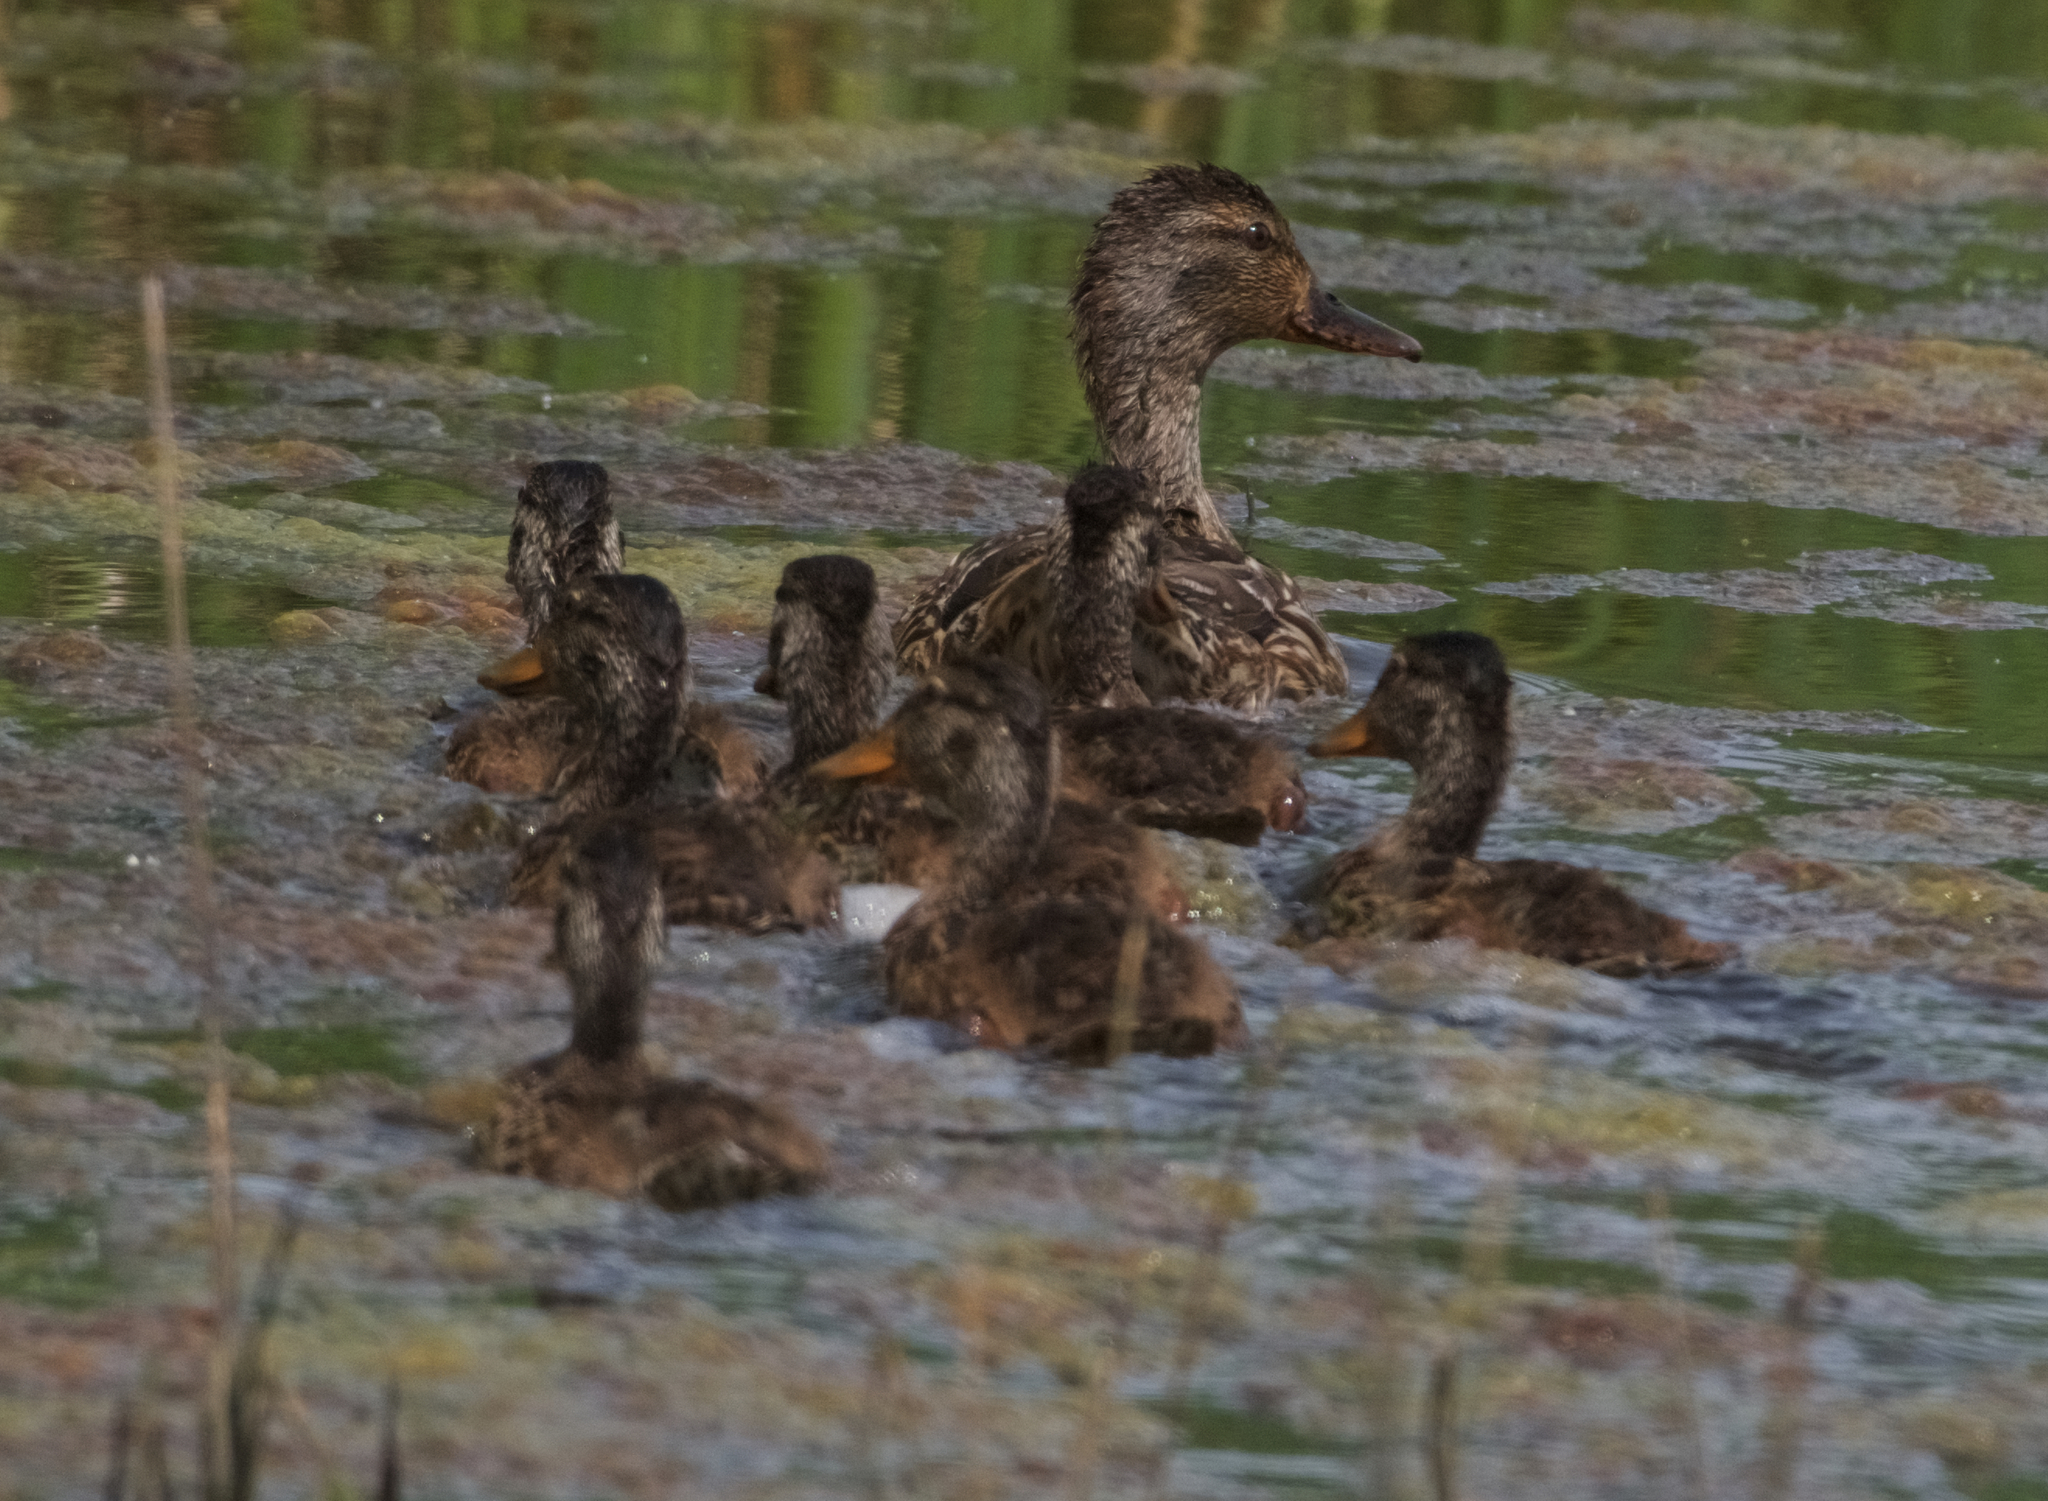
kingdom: Animalia
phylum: Chordata
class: Aves
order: Anseriformes
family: Anatidae
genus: Anas
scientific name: Anas platyrhynchos
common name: Mallard
